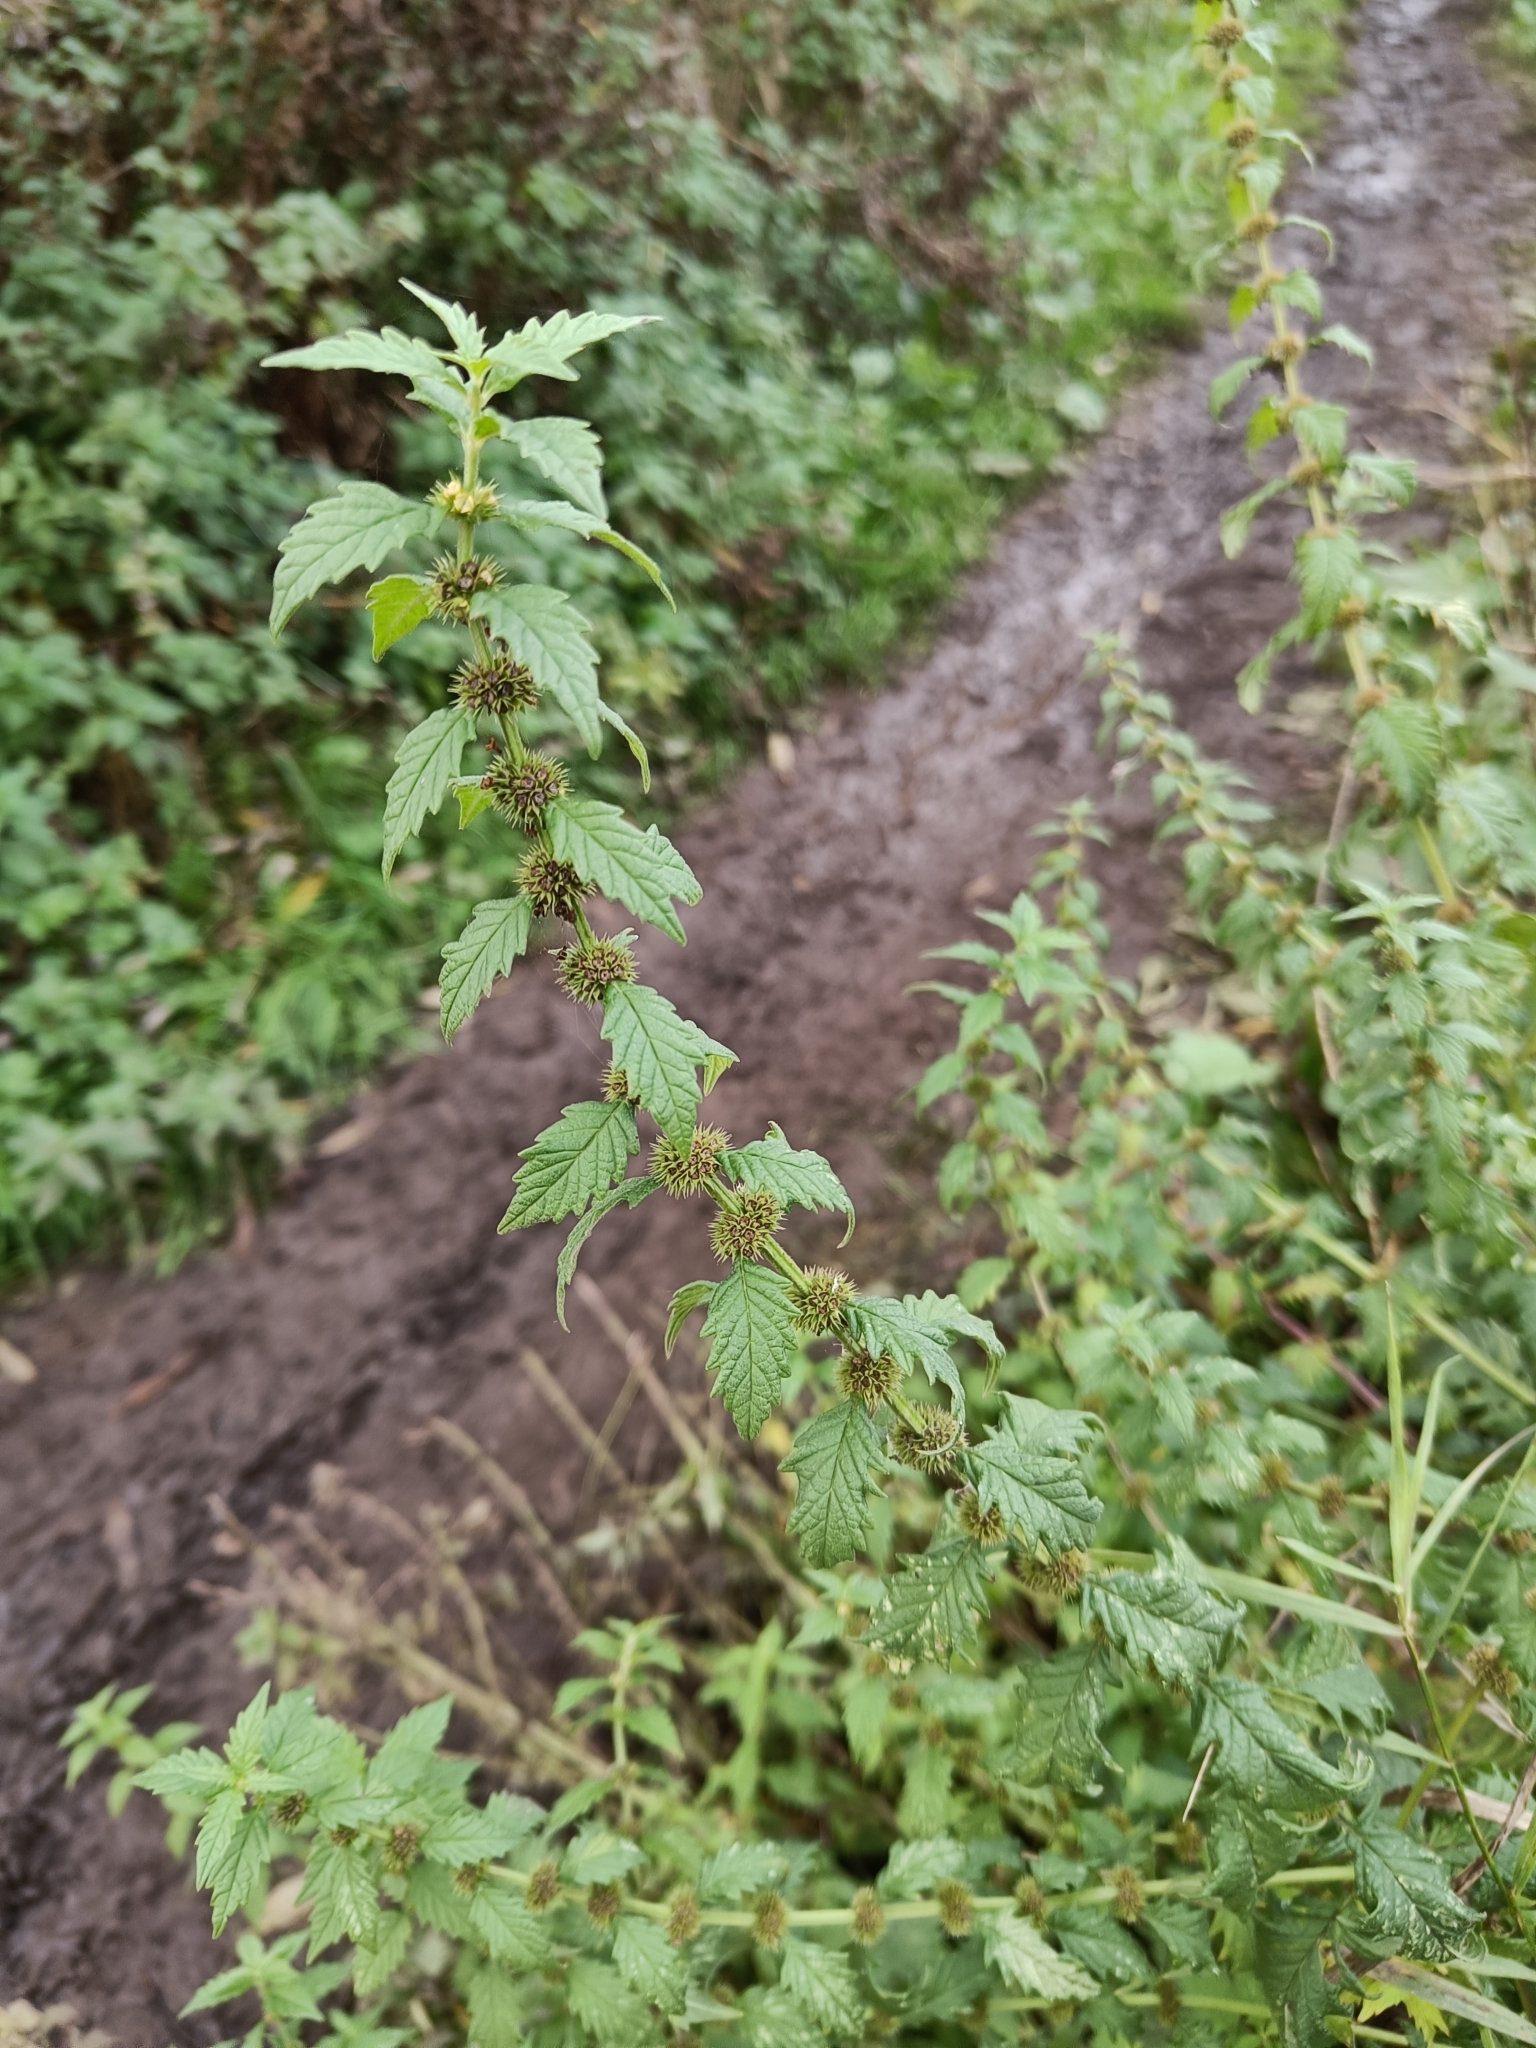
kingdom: Plantae
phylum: Tracheophyta
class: Magnoliopsida
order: Lamiales
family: Lamiaceae
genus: Lycopus
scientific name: Lycopus europaeus
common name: European bugleweed
